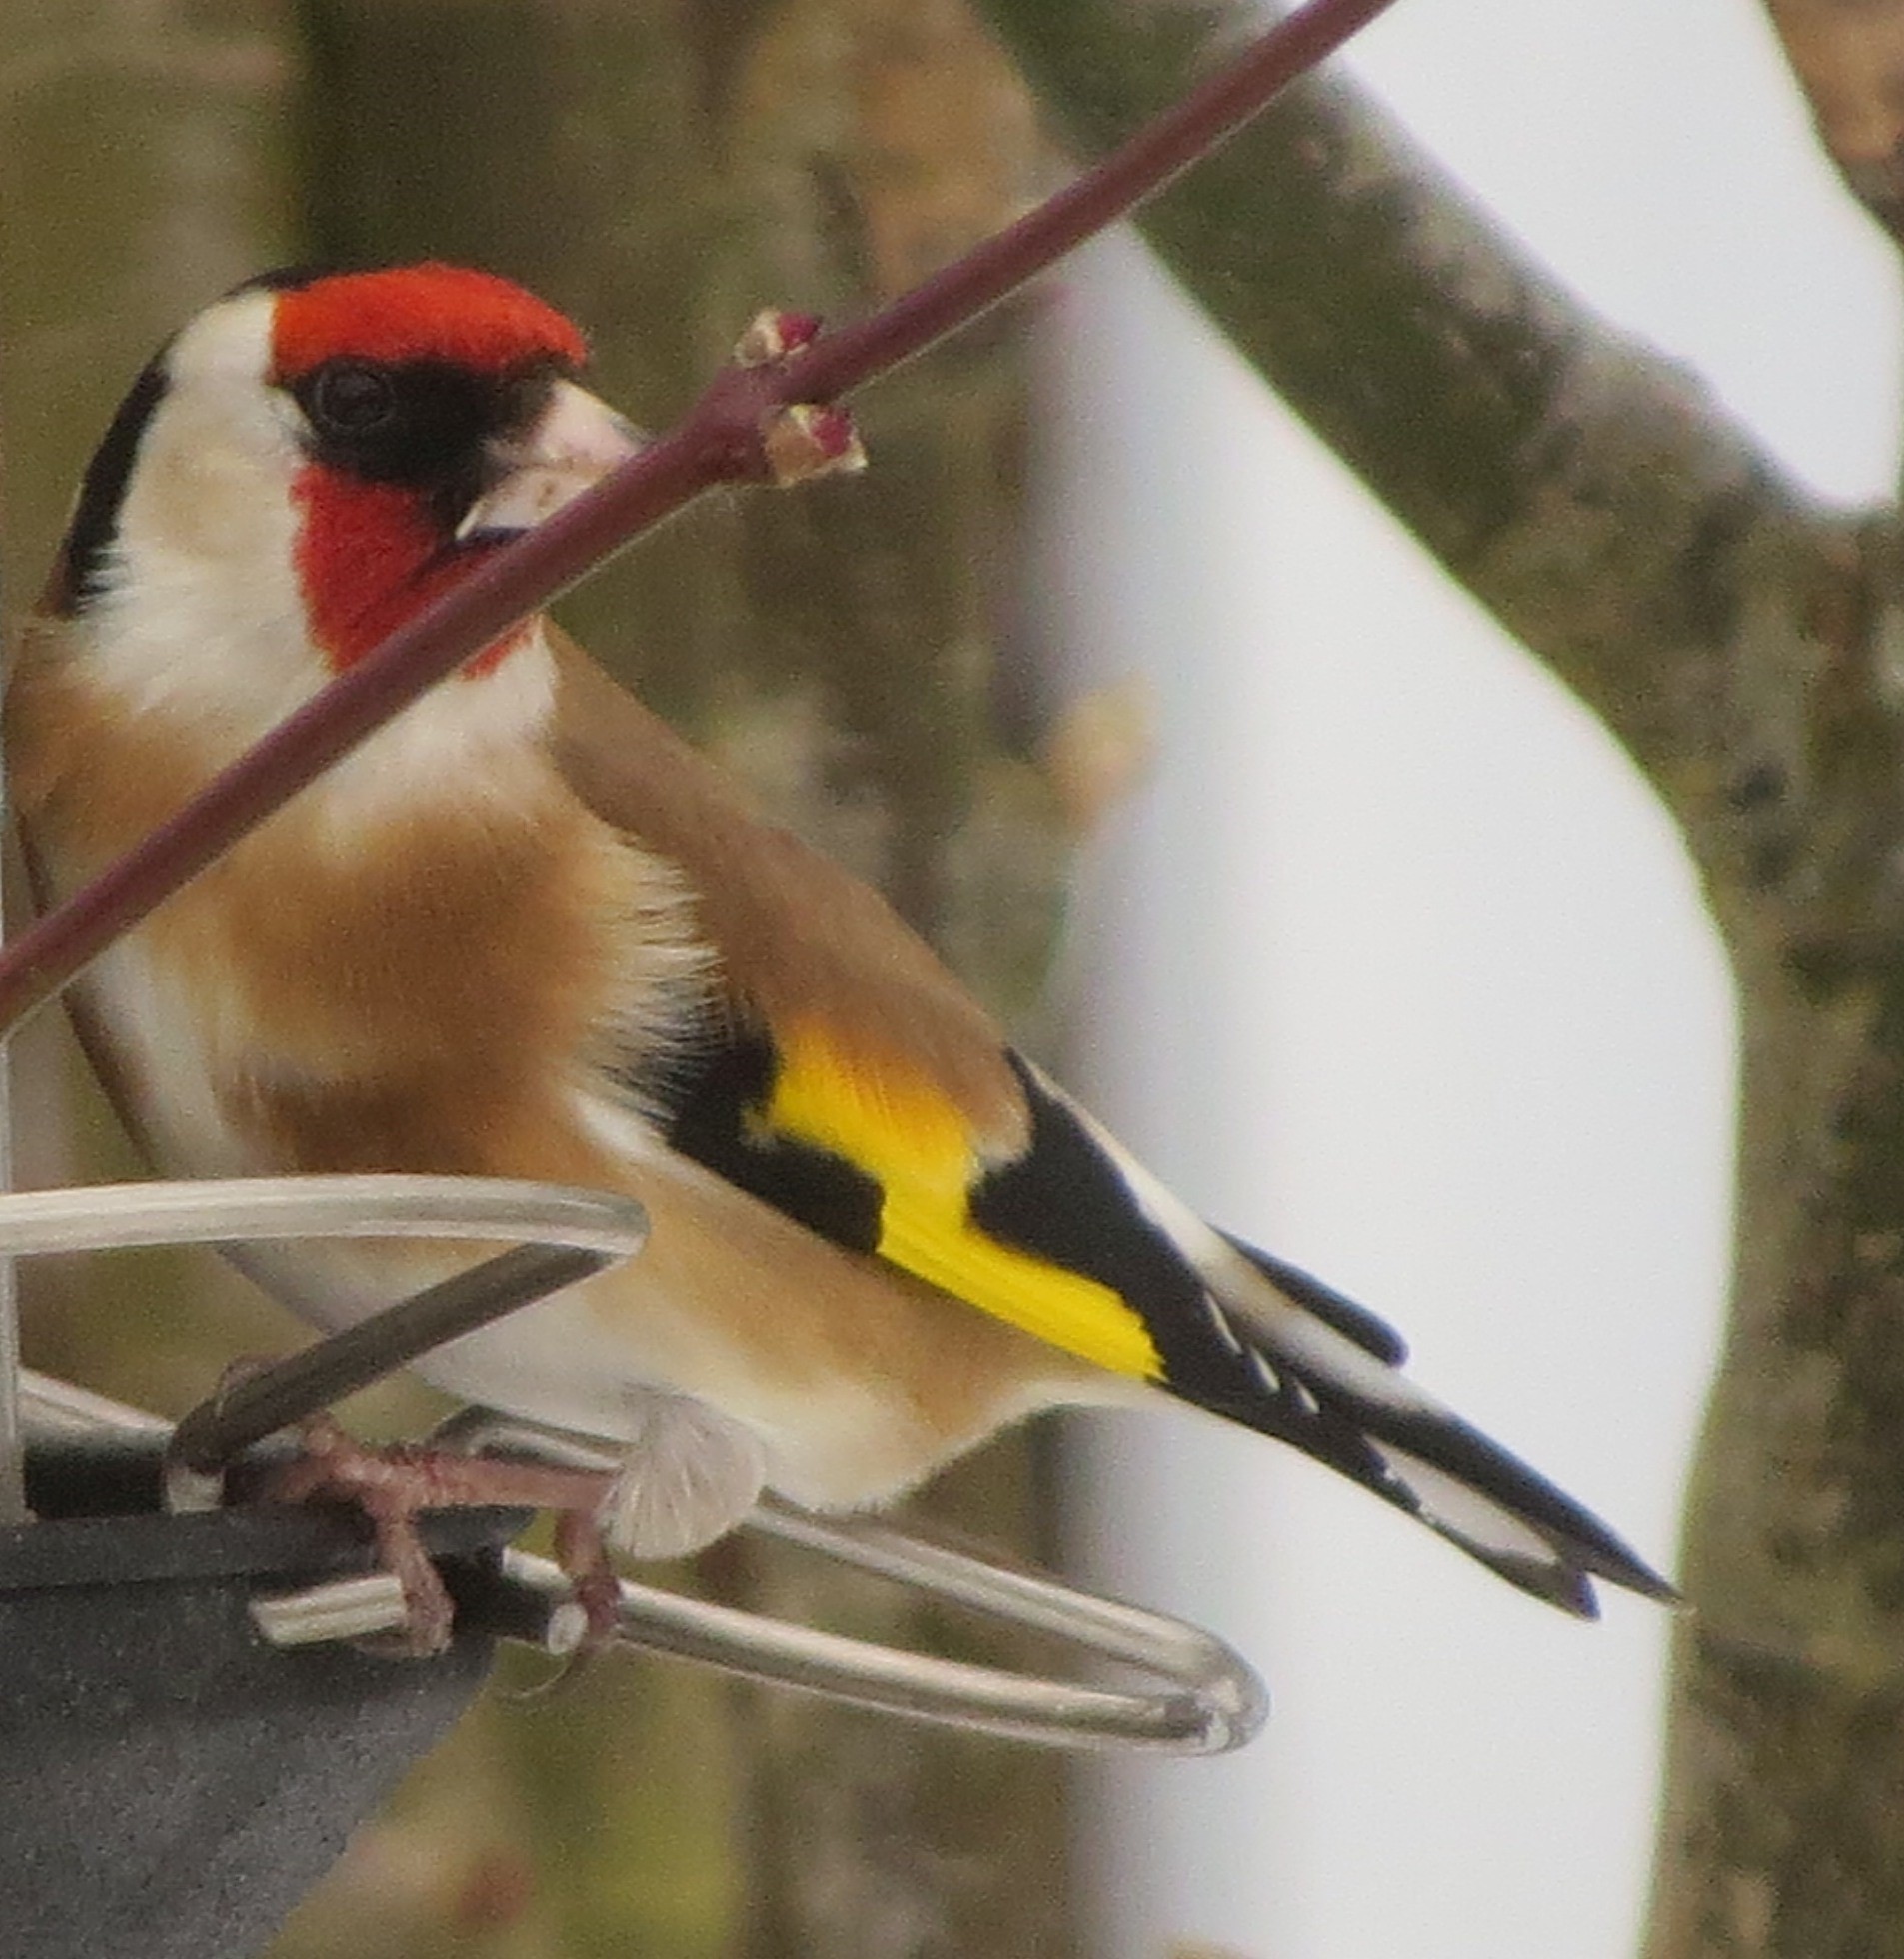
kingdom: Animalia
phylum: Chordata
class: Aves
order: Passeriformes
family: Fringillidae
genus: Carduelis
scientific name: Carduelis carduelis
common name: European goldfinch
